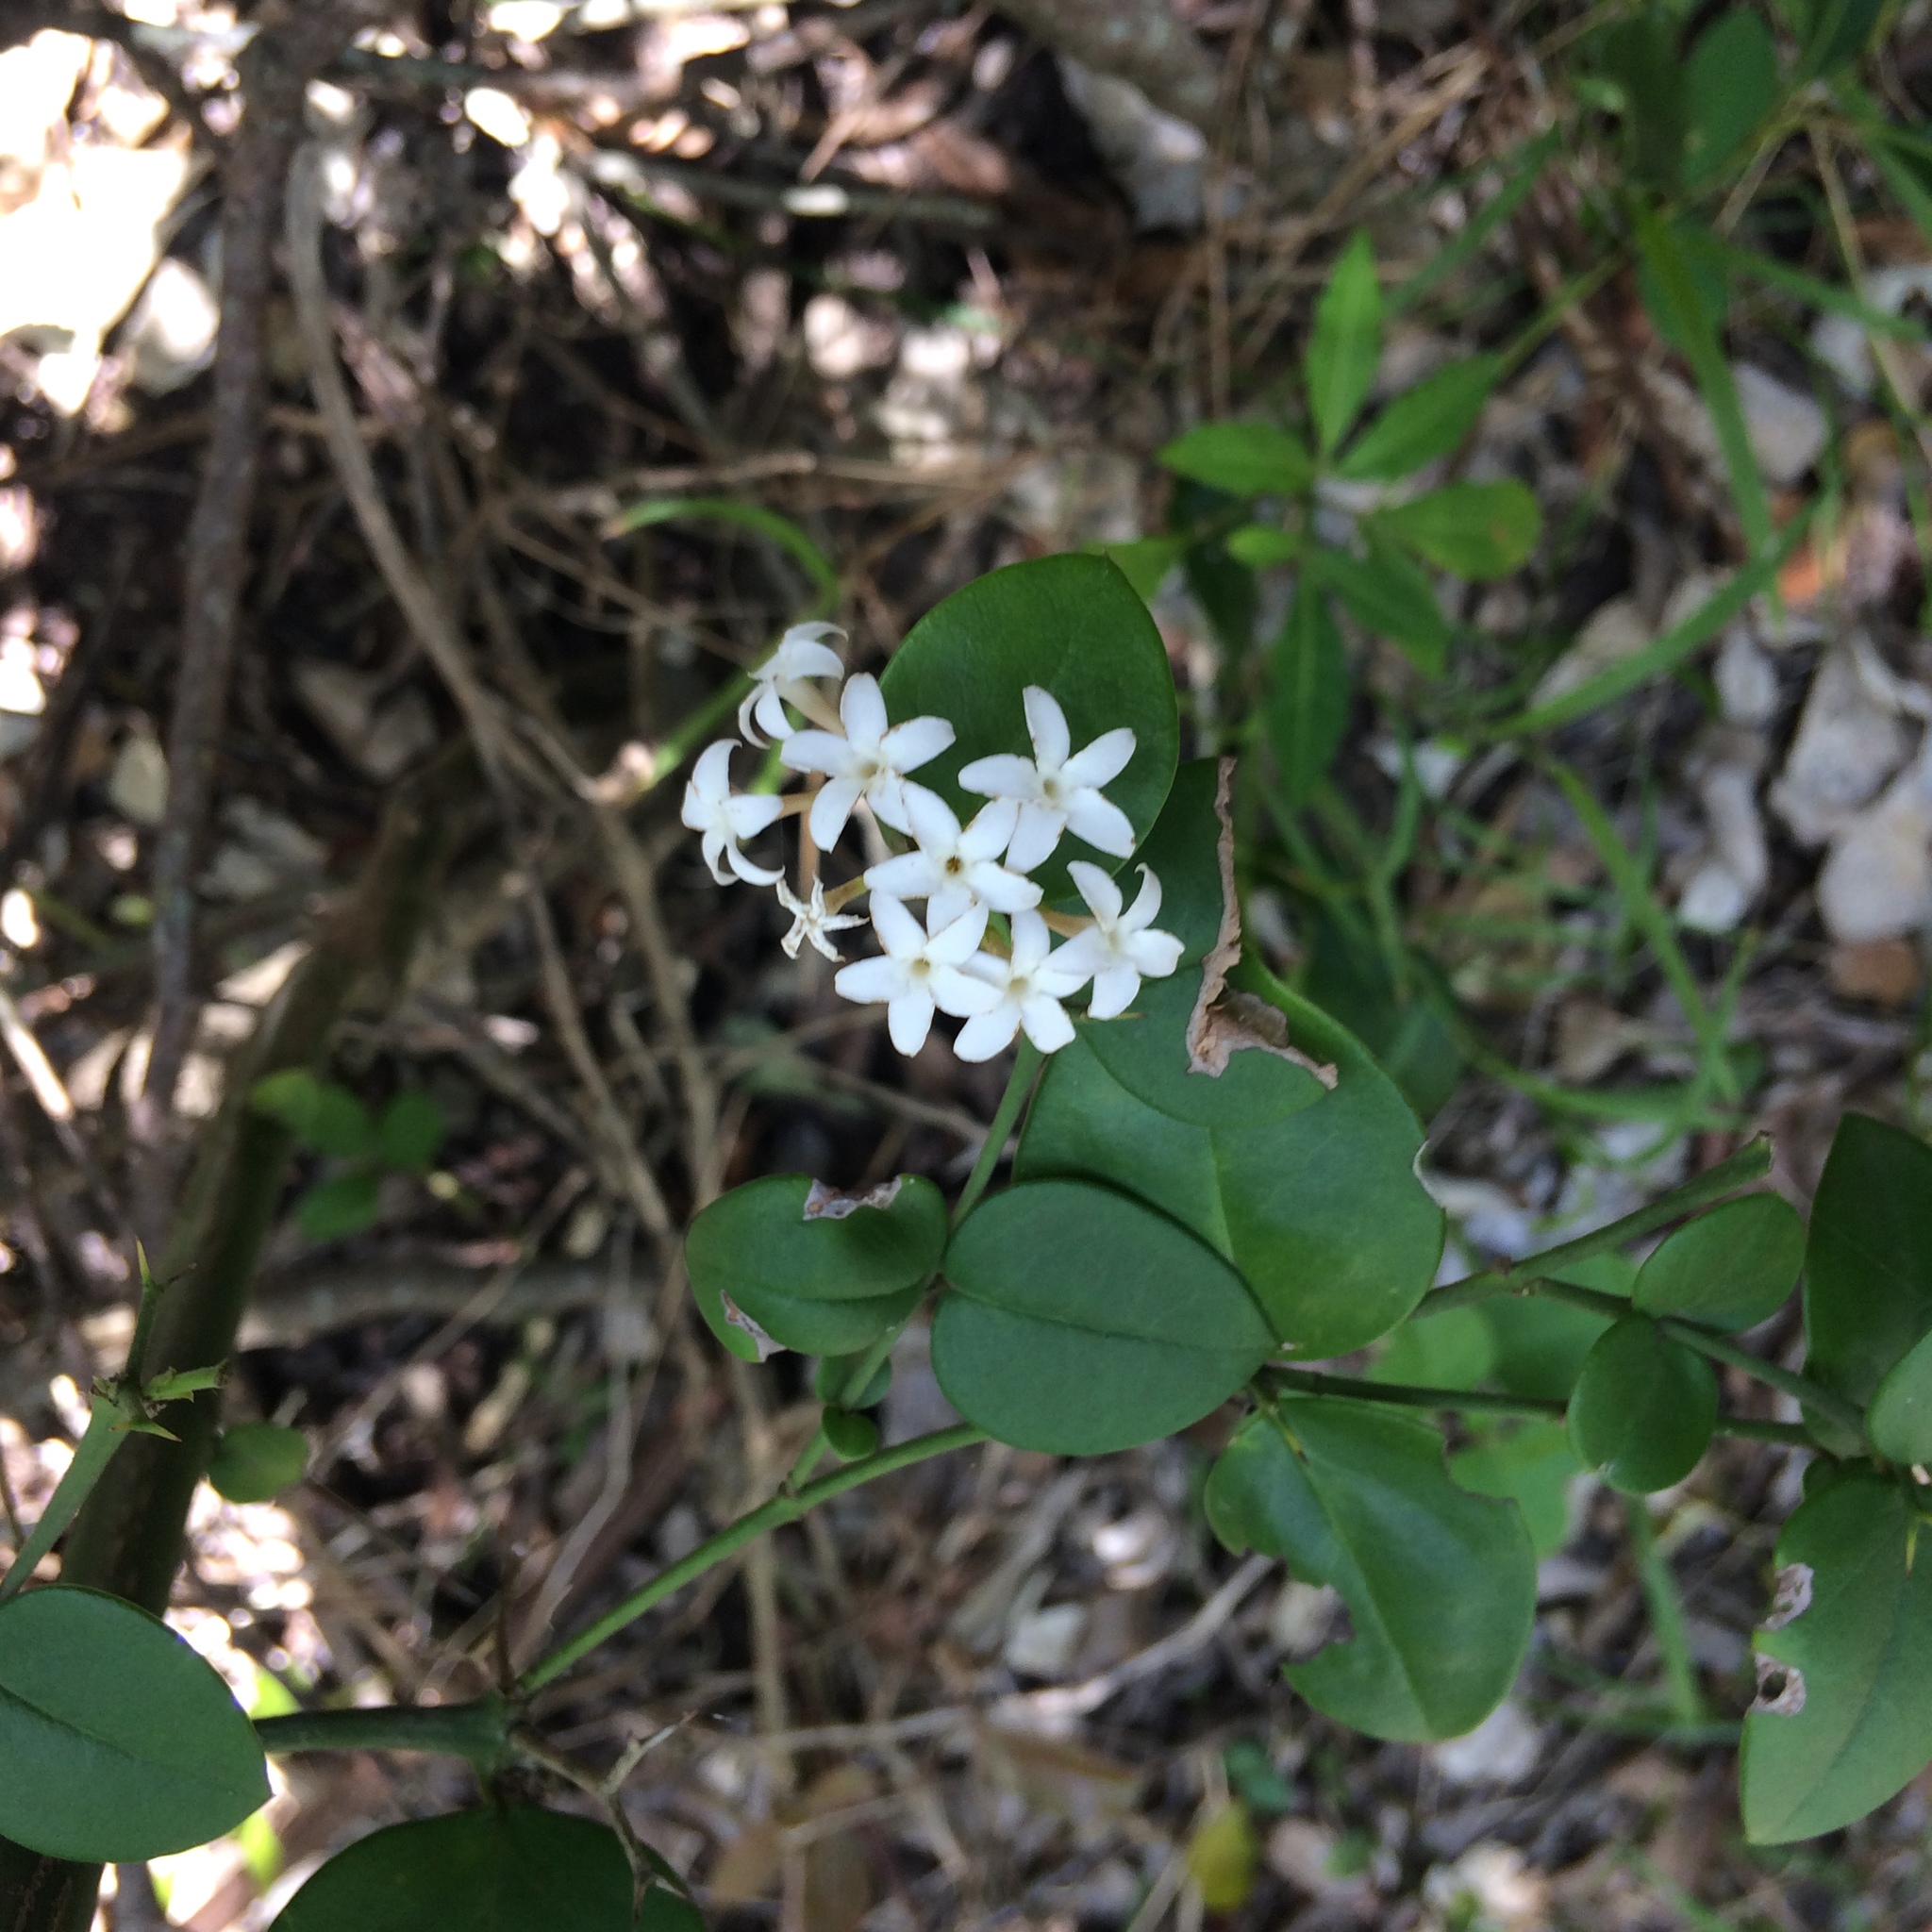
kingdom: Plantae
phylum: Tracheophyta
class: Magnoliopsida
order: Gentianales
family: Apocynaceae
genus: Carissa
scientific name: Carissa bispinosa
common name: Forest num-num
